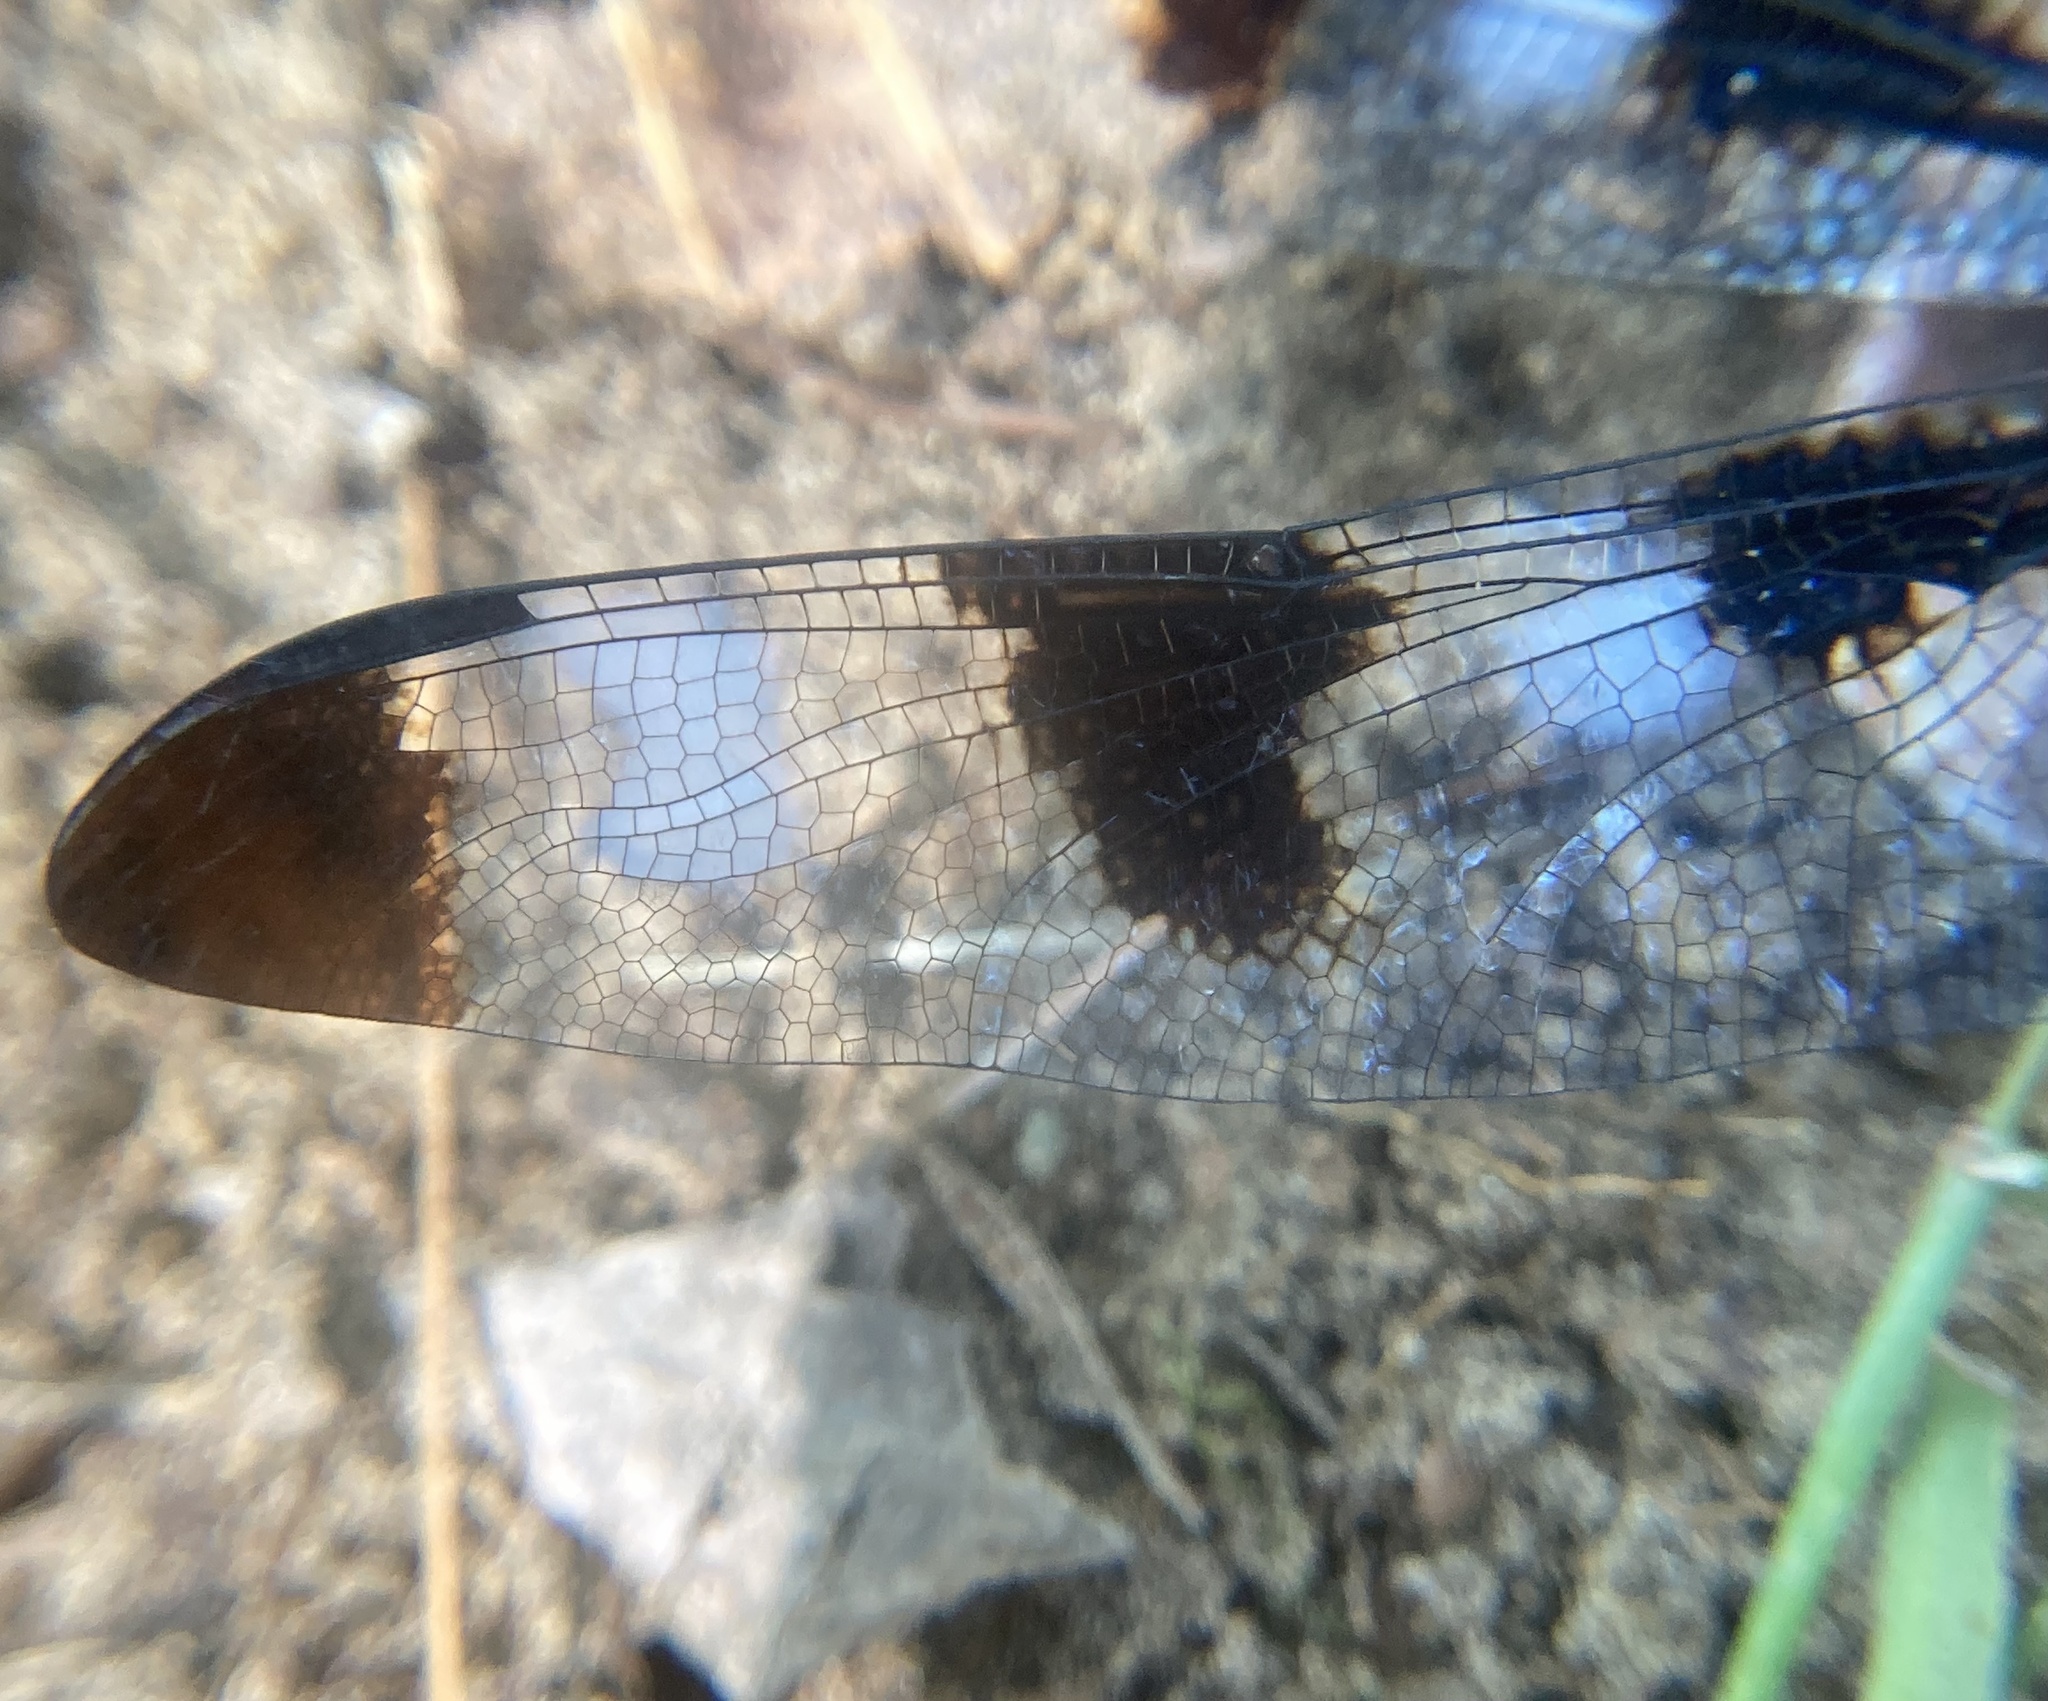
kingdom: Animalia
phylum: Arthropoda
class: Insecta
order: Odonata
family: Libellulidae
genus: Libellula
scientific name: Libellula pulchella
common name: Twelve-spotted skimmer
